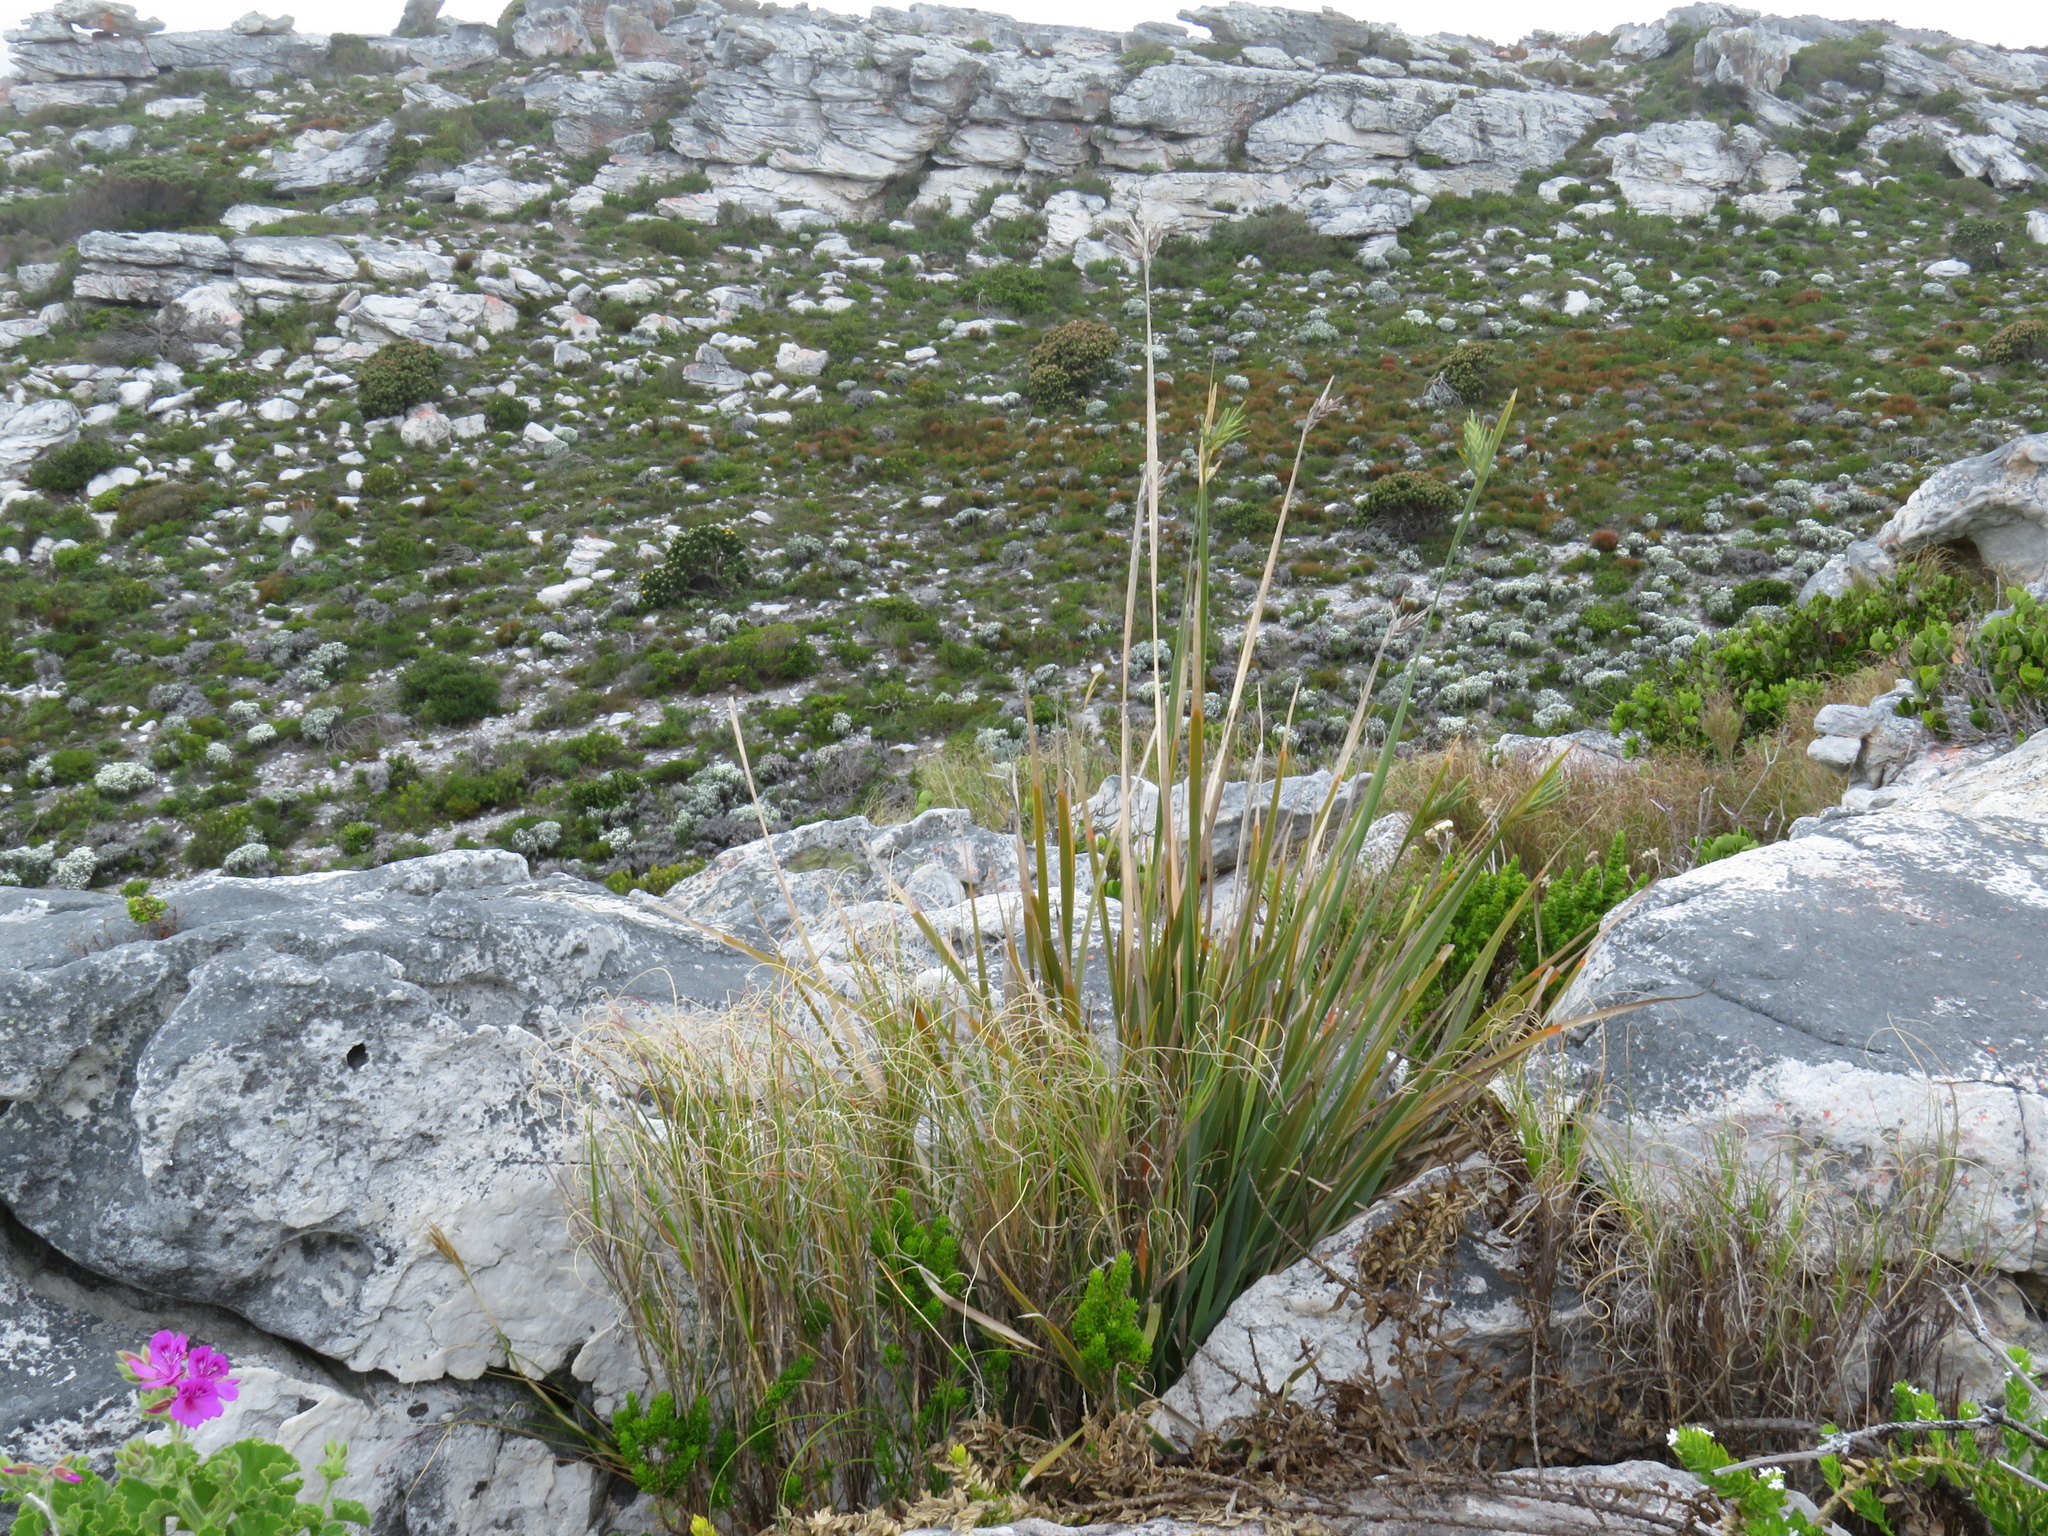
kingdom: Plantae
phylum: Tracheophyta
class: Liliopsida
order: Asparagales
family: Iridaceae
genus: Bobartia
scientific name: Bobartia gladiata
